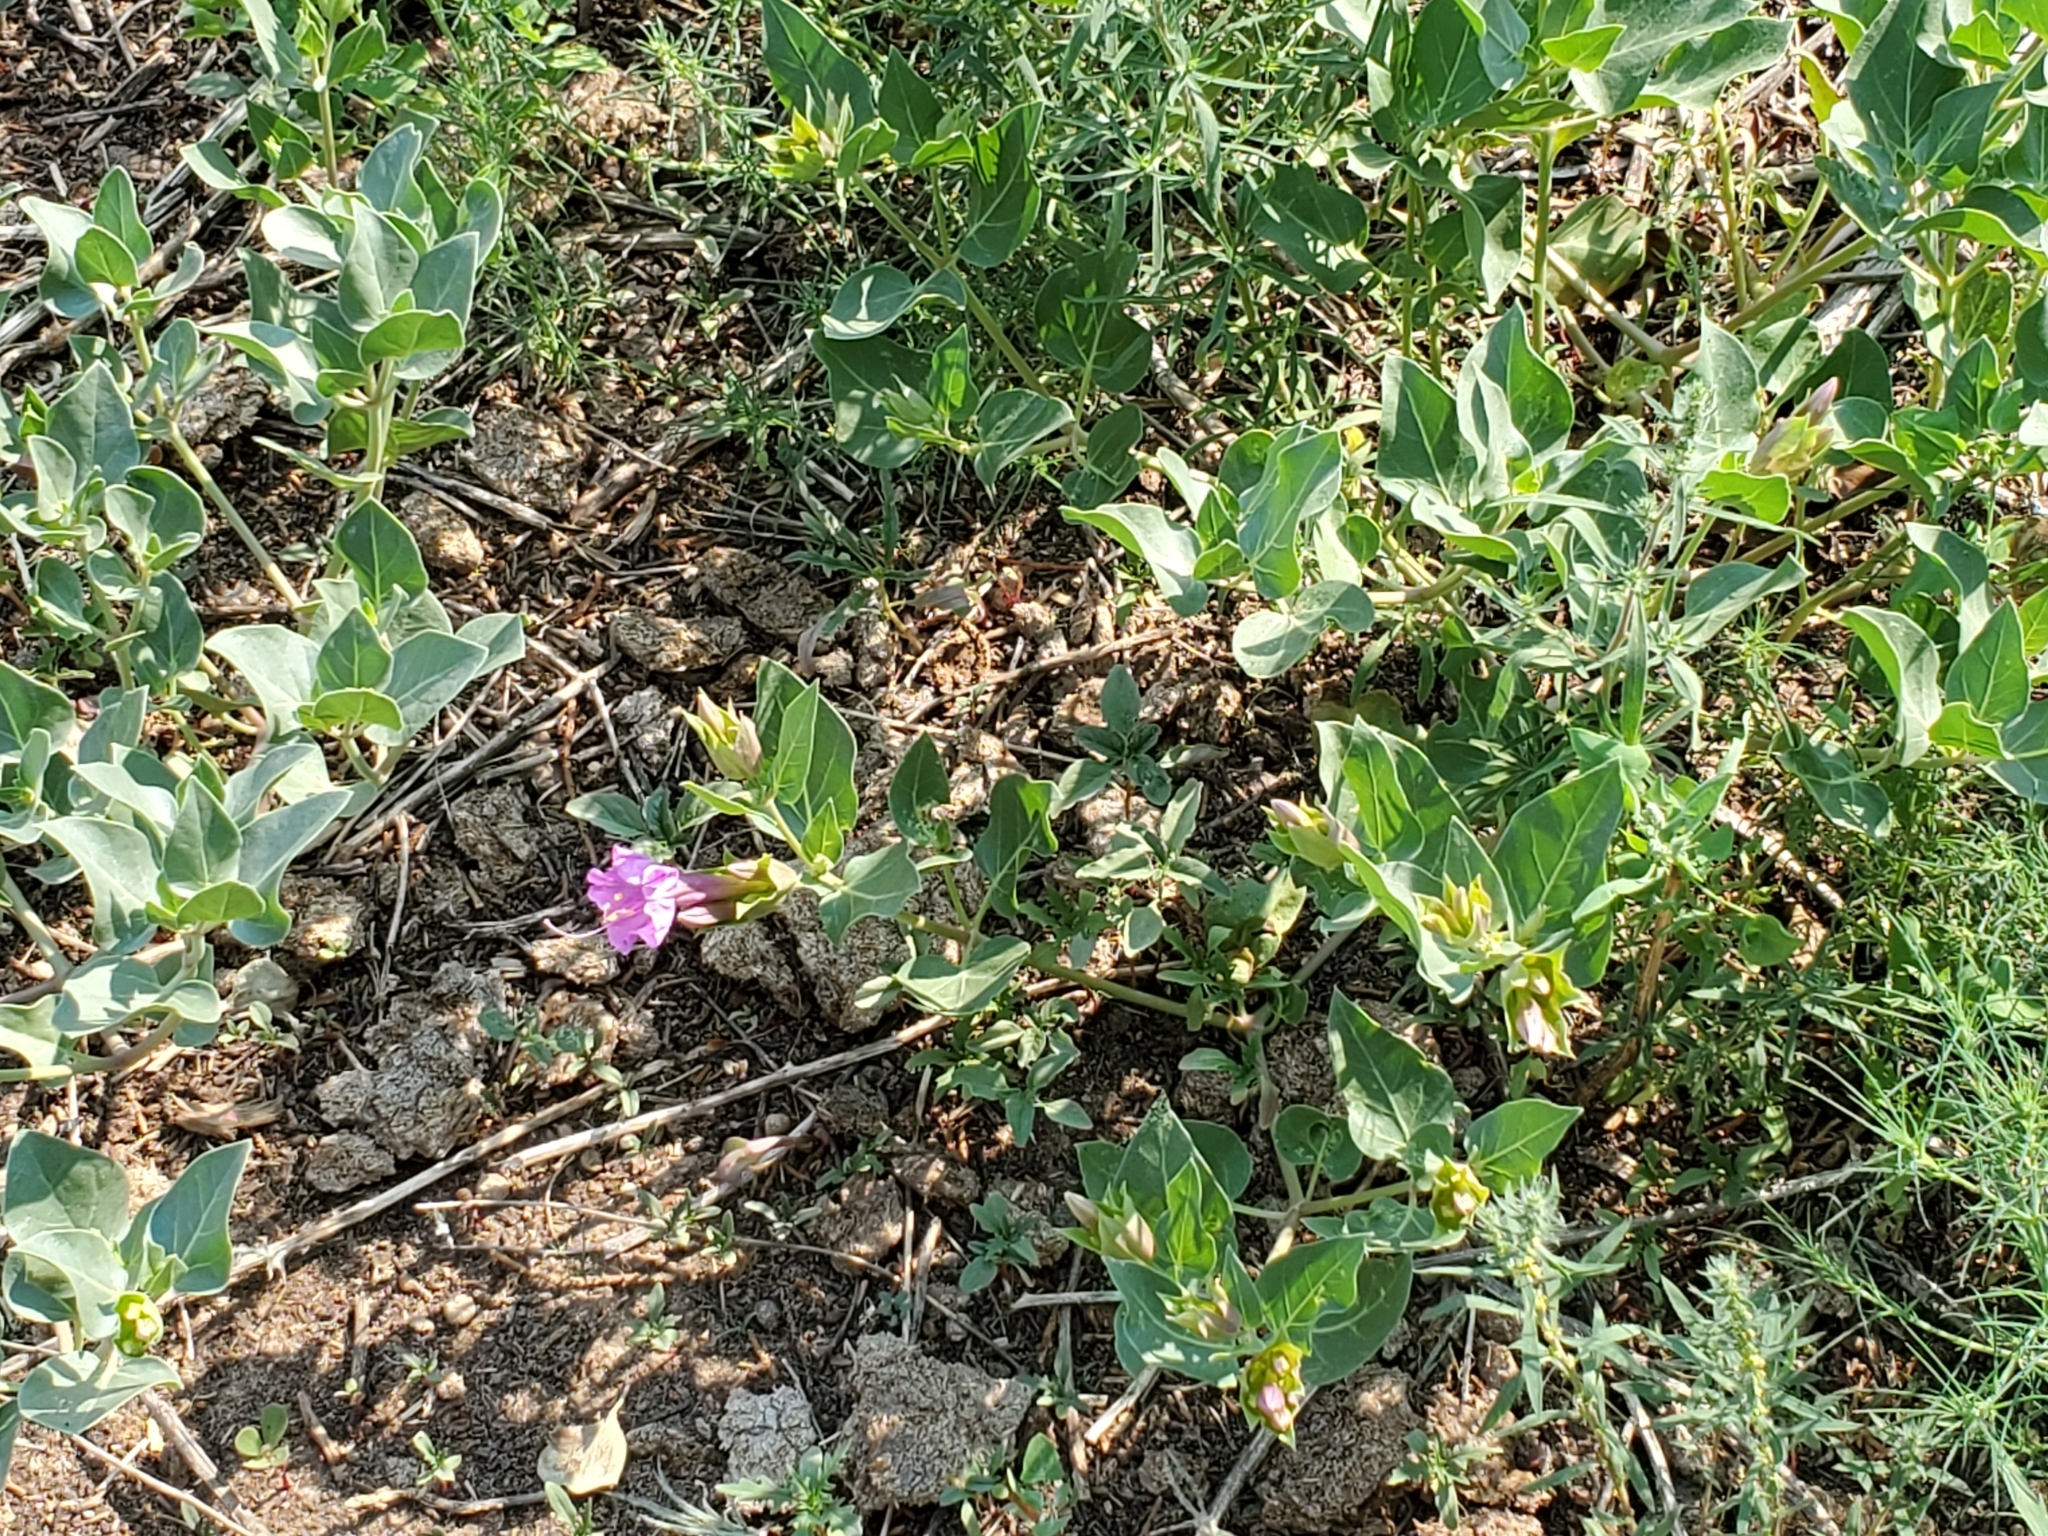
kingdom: Plantae
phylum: Tracheophyta
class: Magnoliopsida
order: Caryophyllales
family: Nyctaginaceae
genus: Mirabilis
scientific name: Mirabilis multiflora
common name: Froebel's four-o'clock
